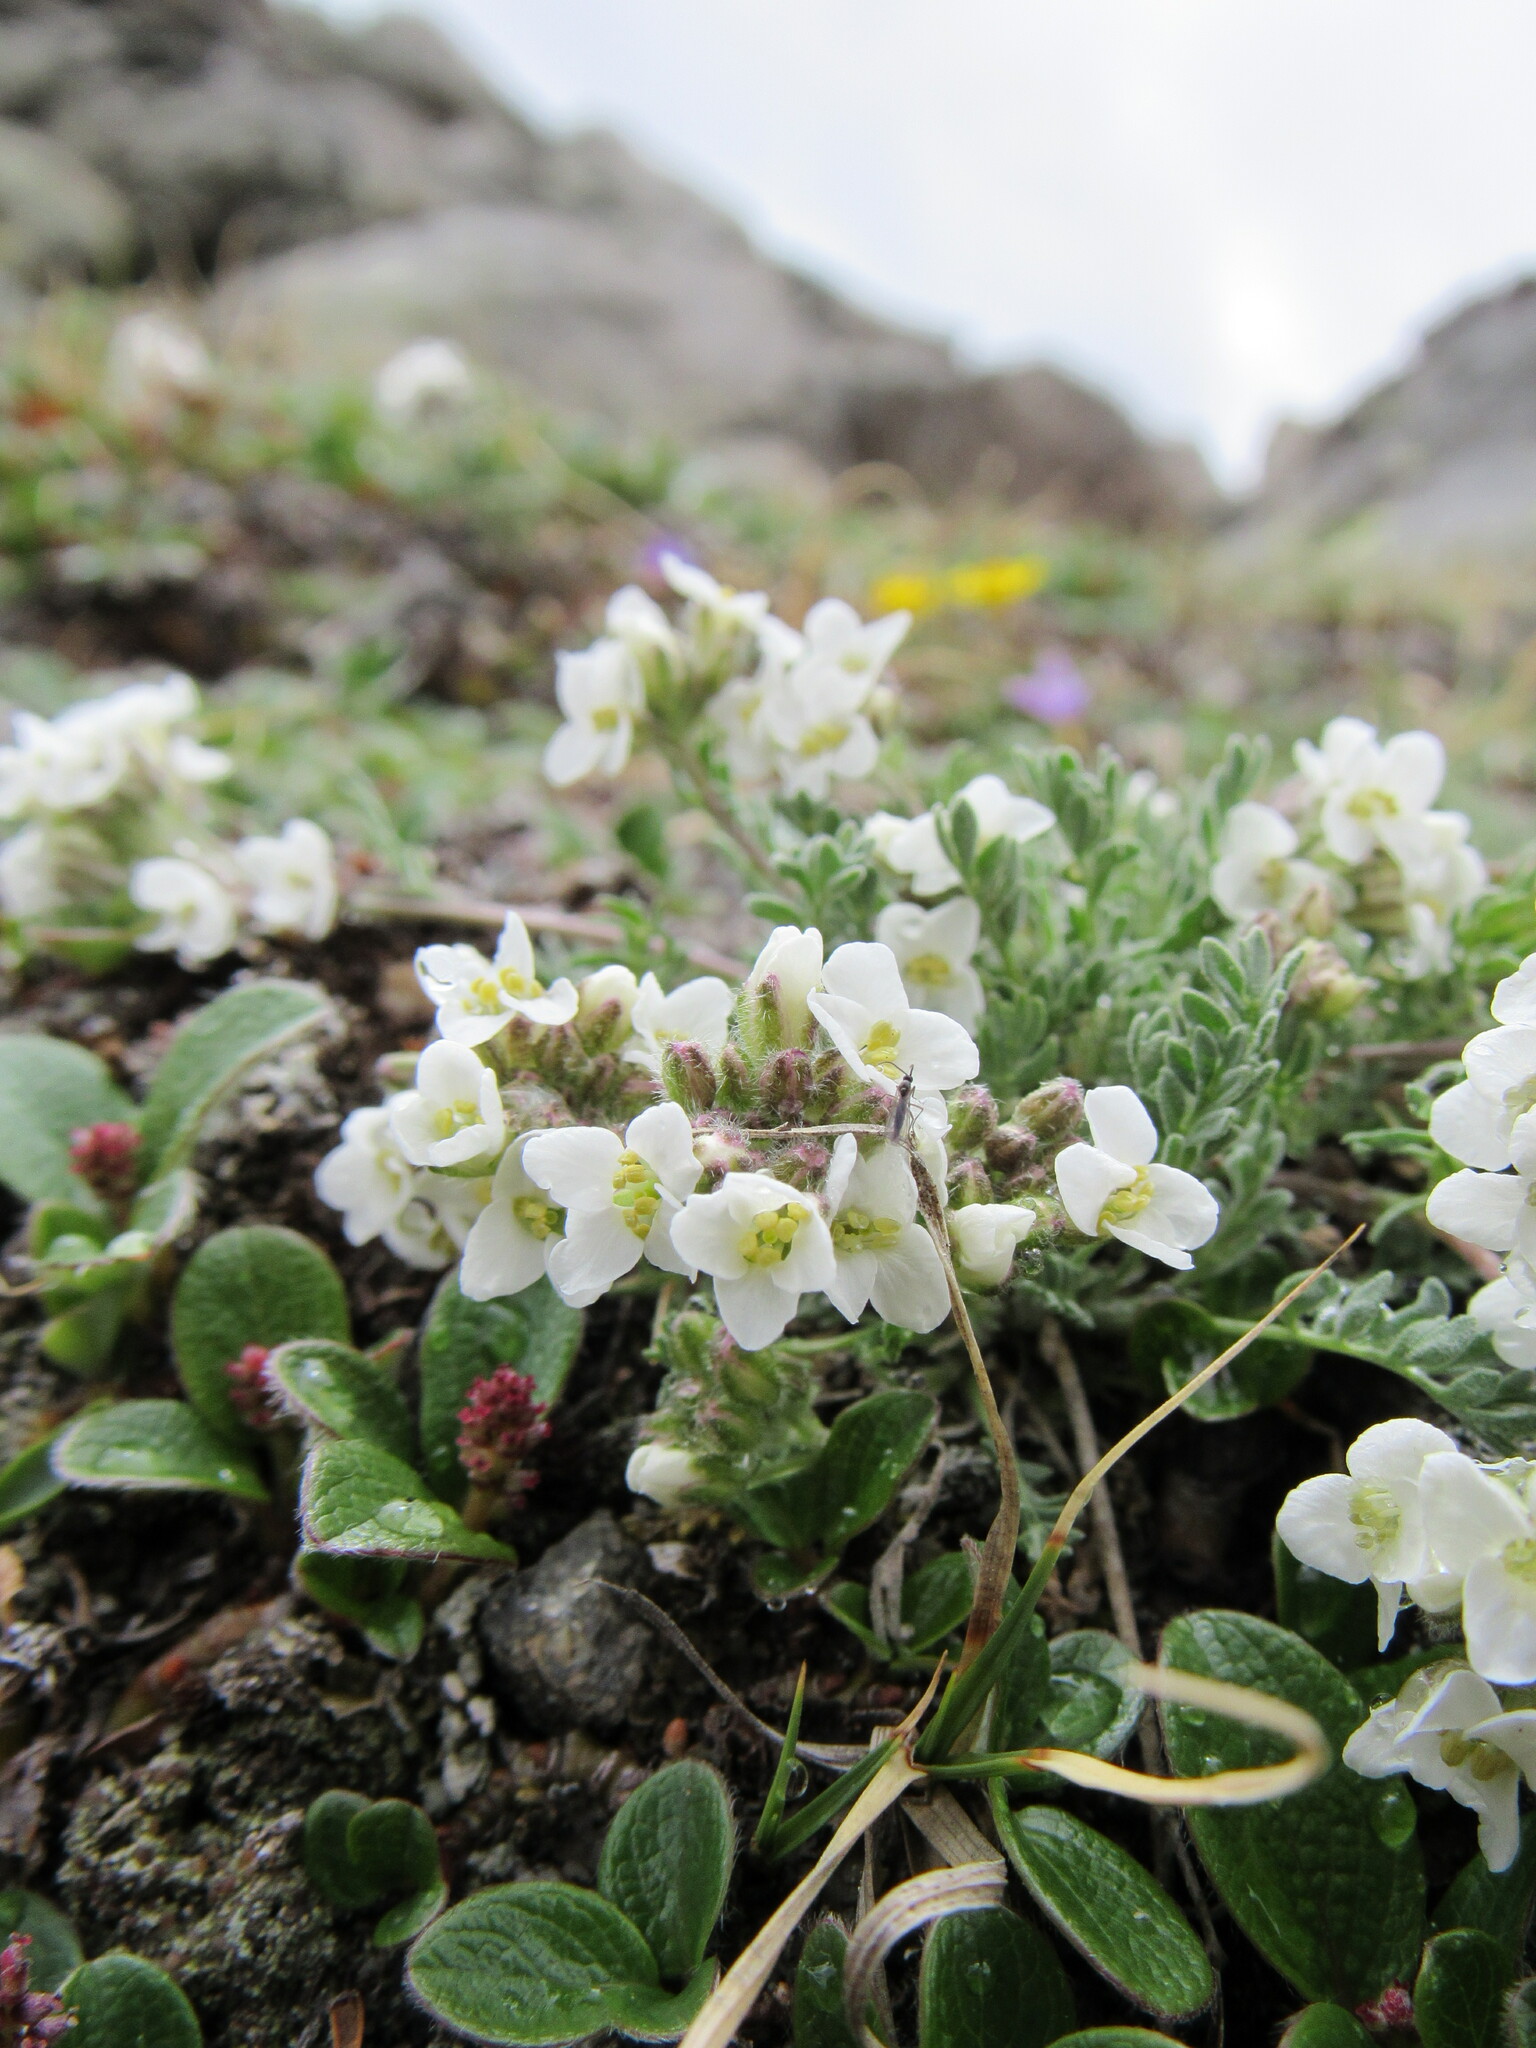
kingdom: Plantae
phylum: Tracheophyta
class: Magnoliopsida
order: Brassicales
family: Brassicaceae
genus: Smelowskia
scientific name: Smelowskia americana
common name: American false candytuft
